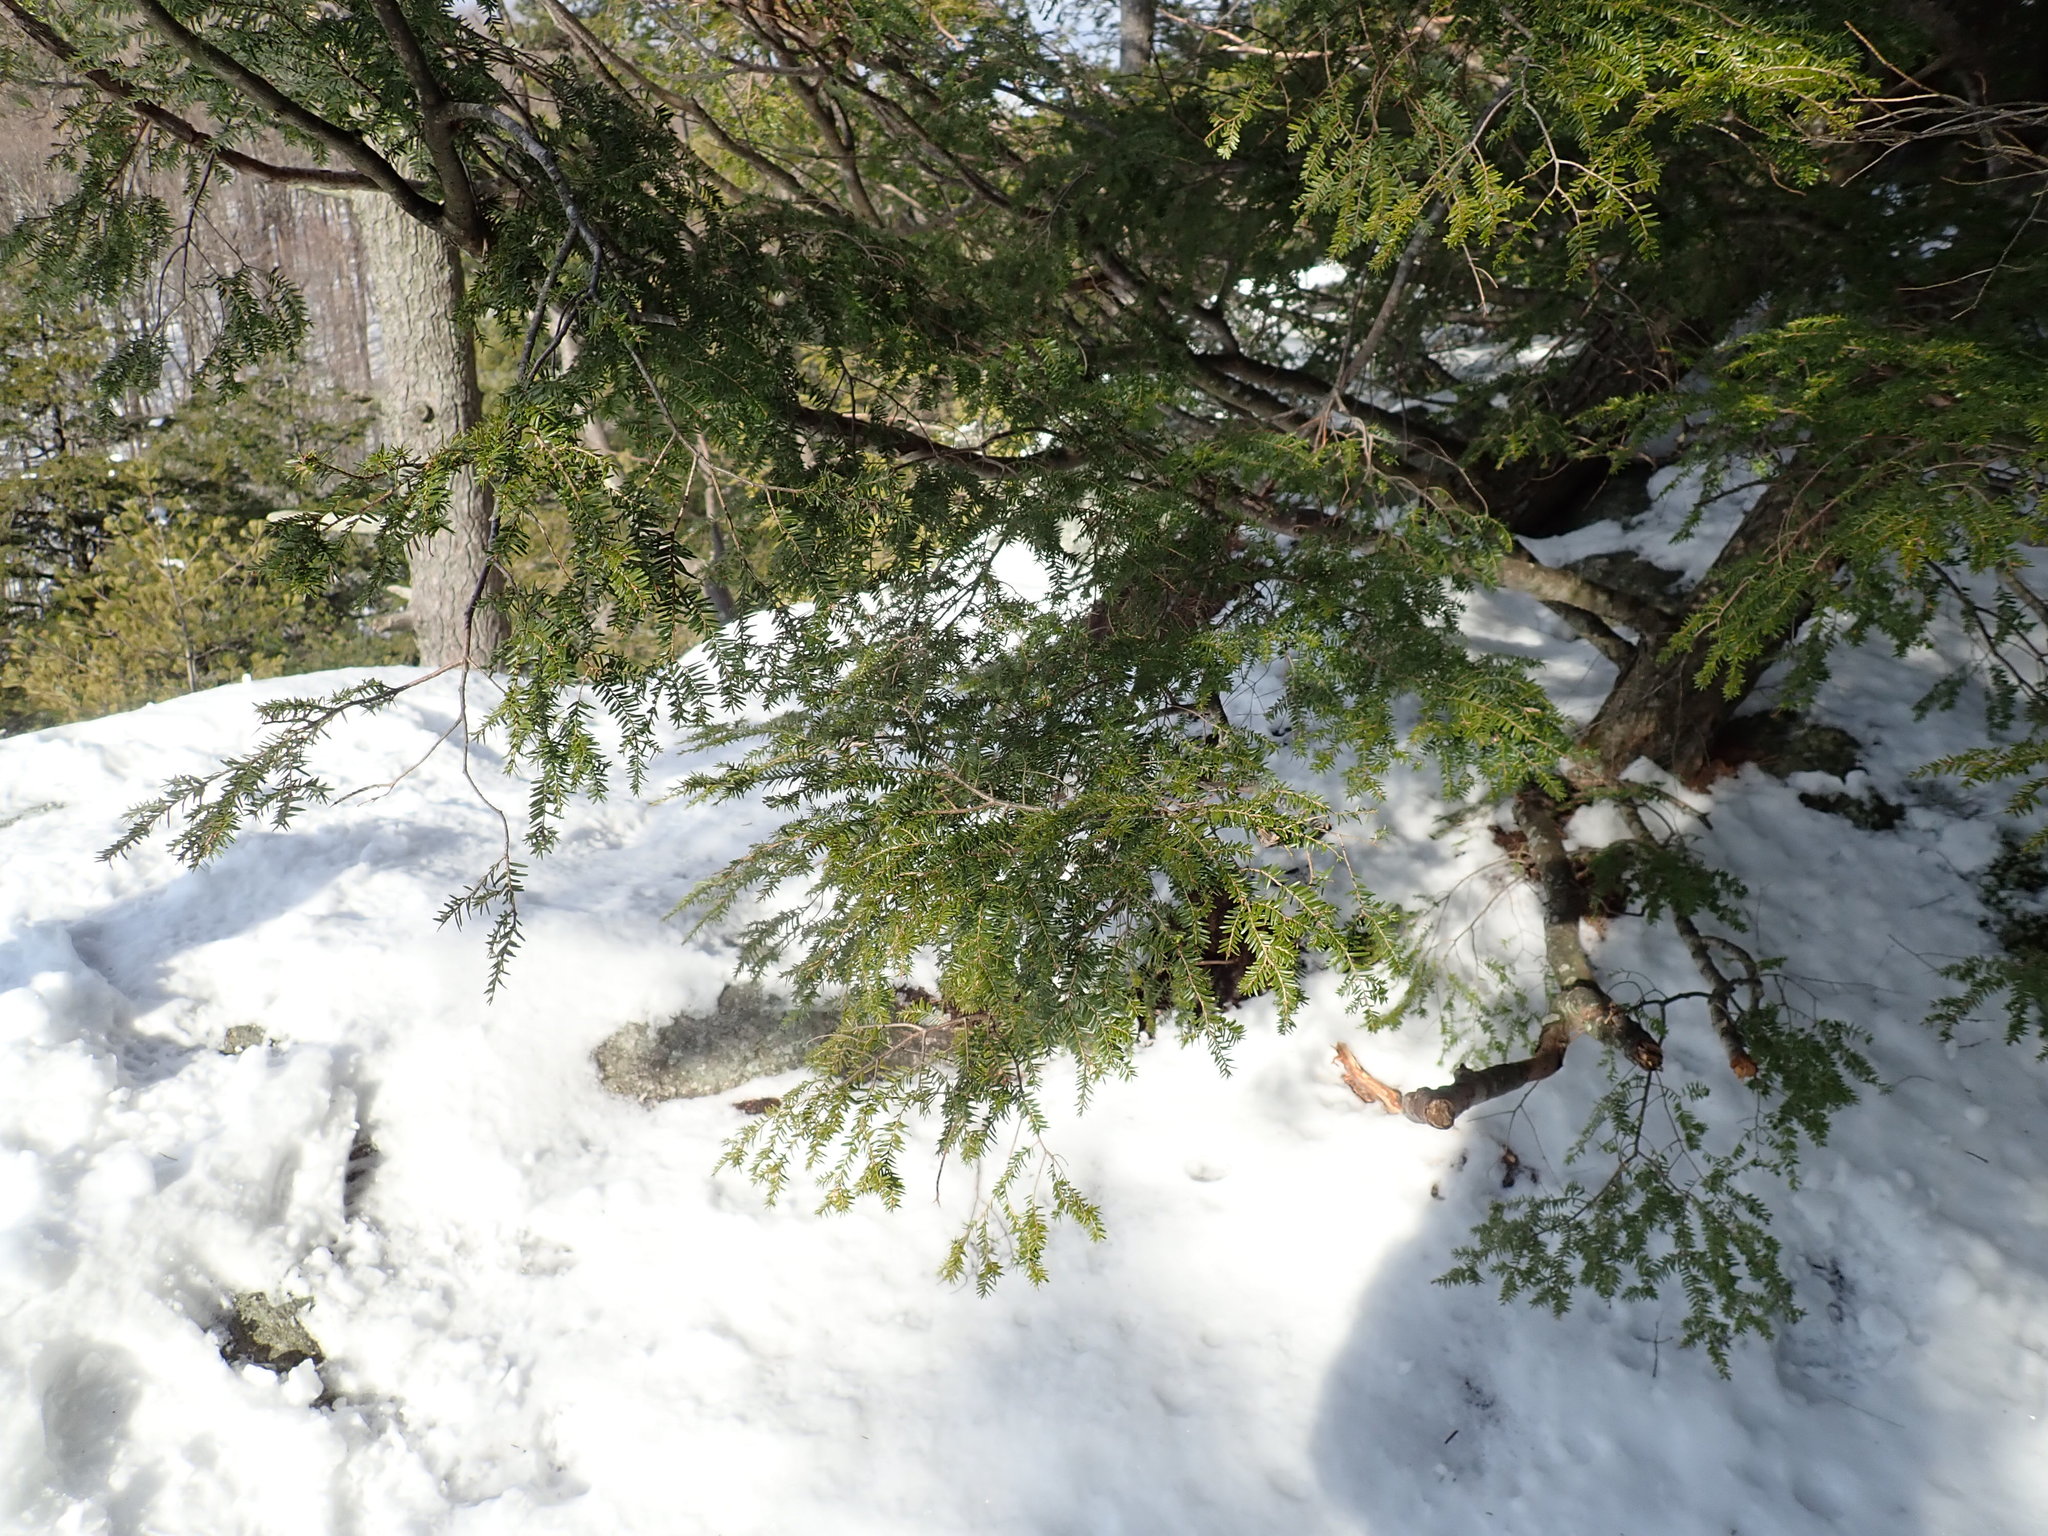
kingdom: Plantae
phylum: Tracheophyta
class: Pinopsida
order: Pinales
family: Pinaceae
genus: Tsuga
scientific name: Tsuga canadensis
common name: Eastern hemlock
